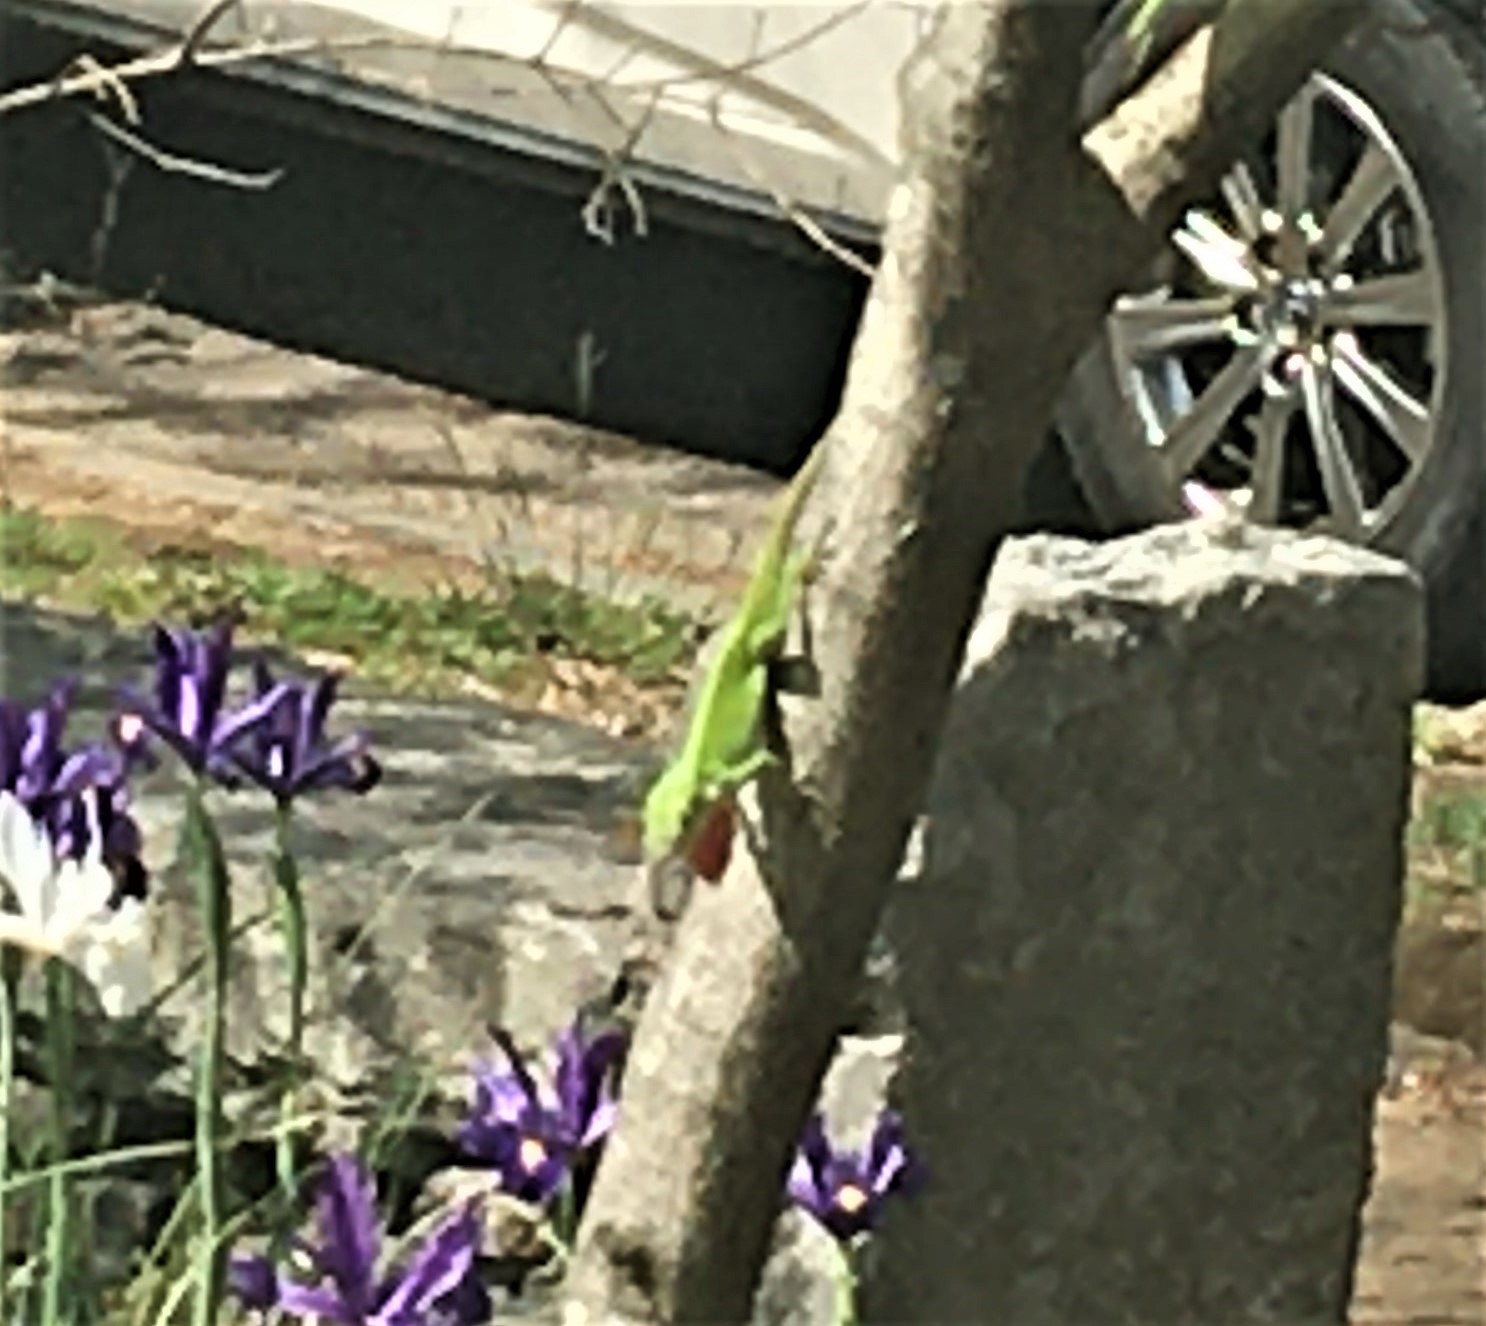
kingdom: Animalia
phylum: Chordata
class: Squamata
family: Dactyloidae
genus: Anolis
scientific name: Anolis carolinensis
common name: Green anole
